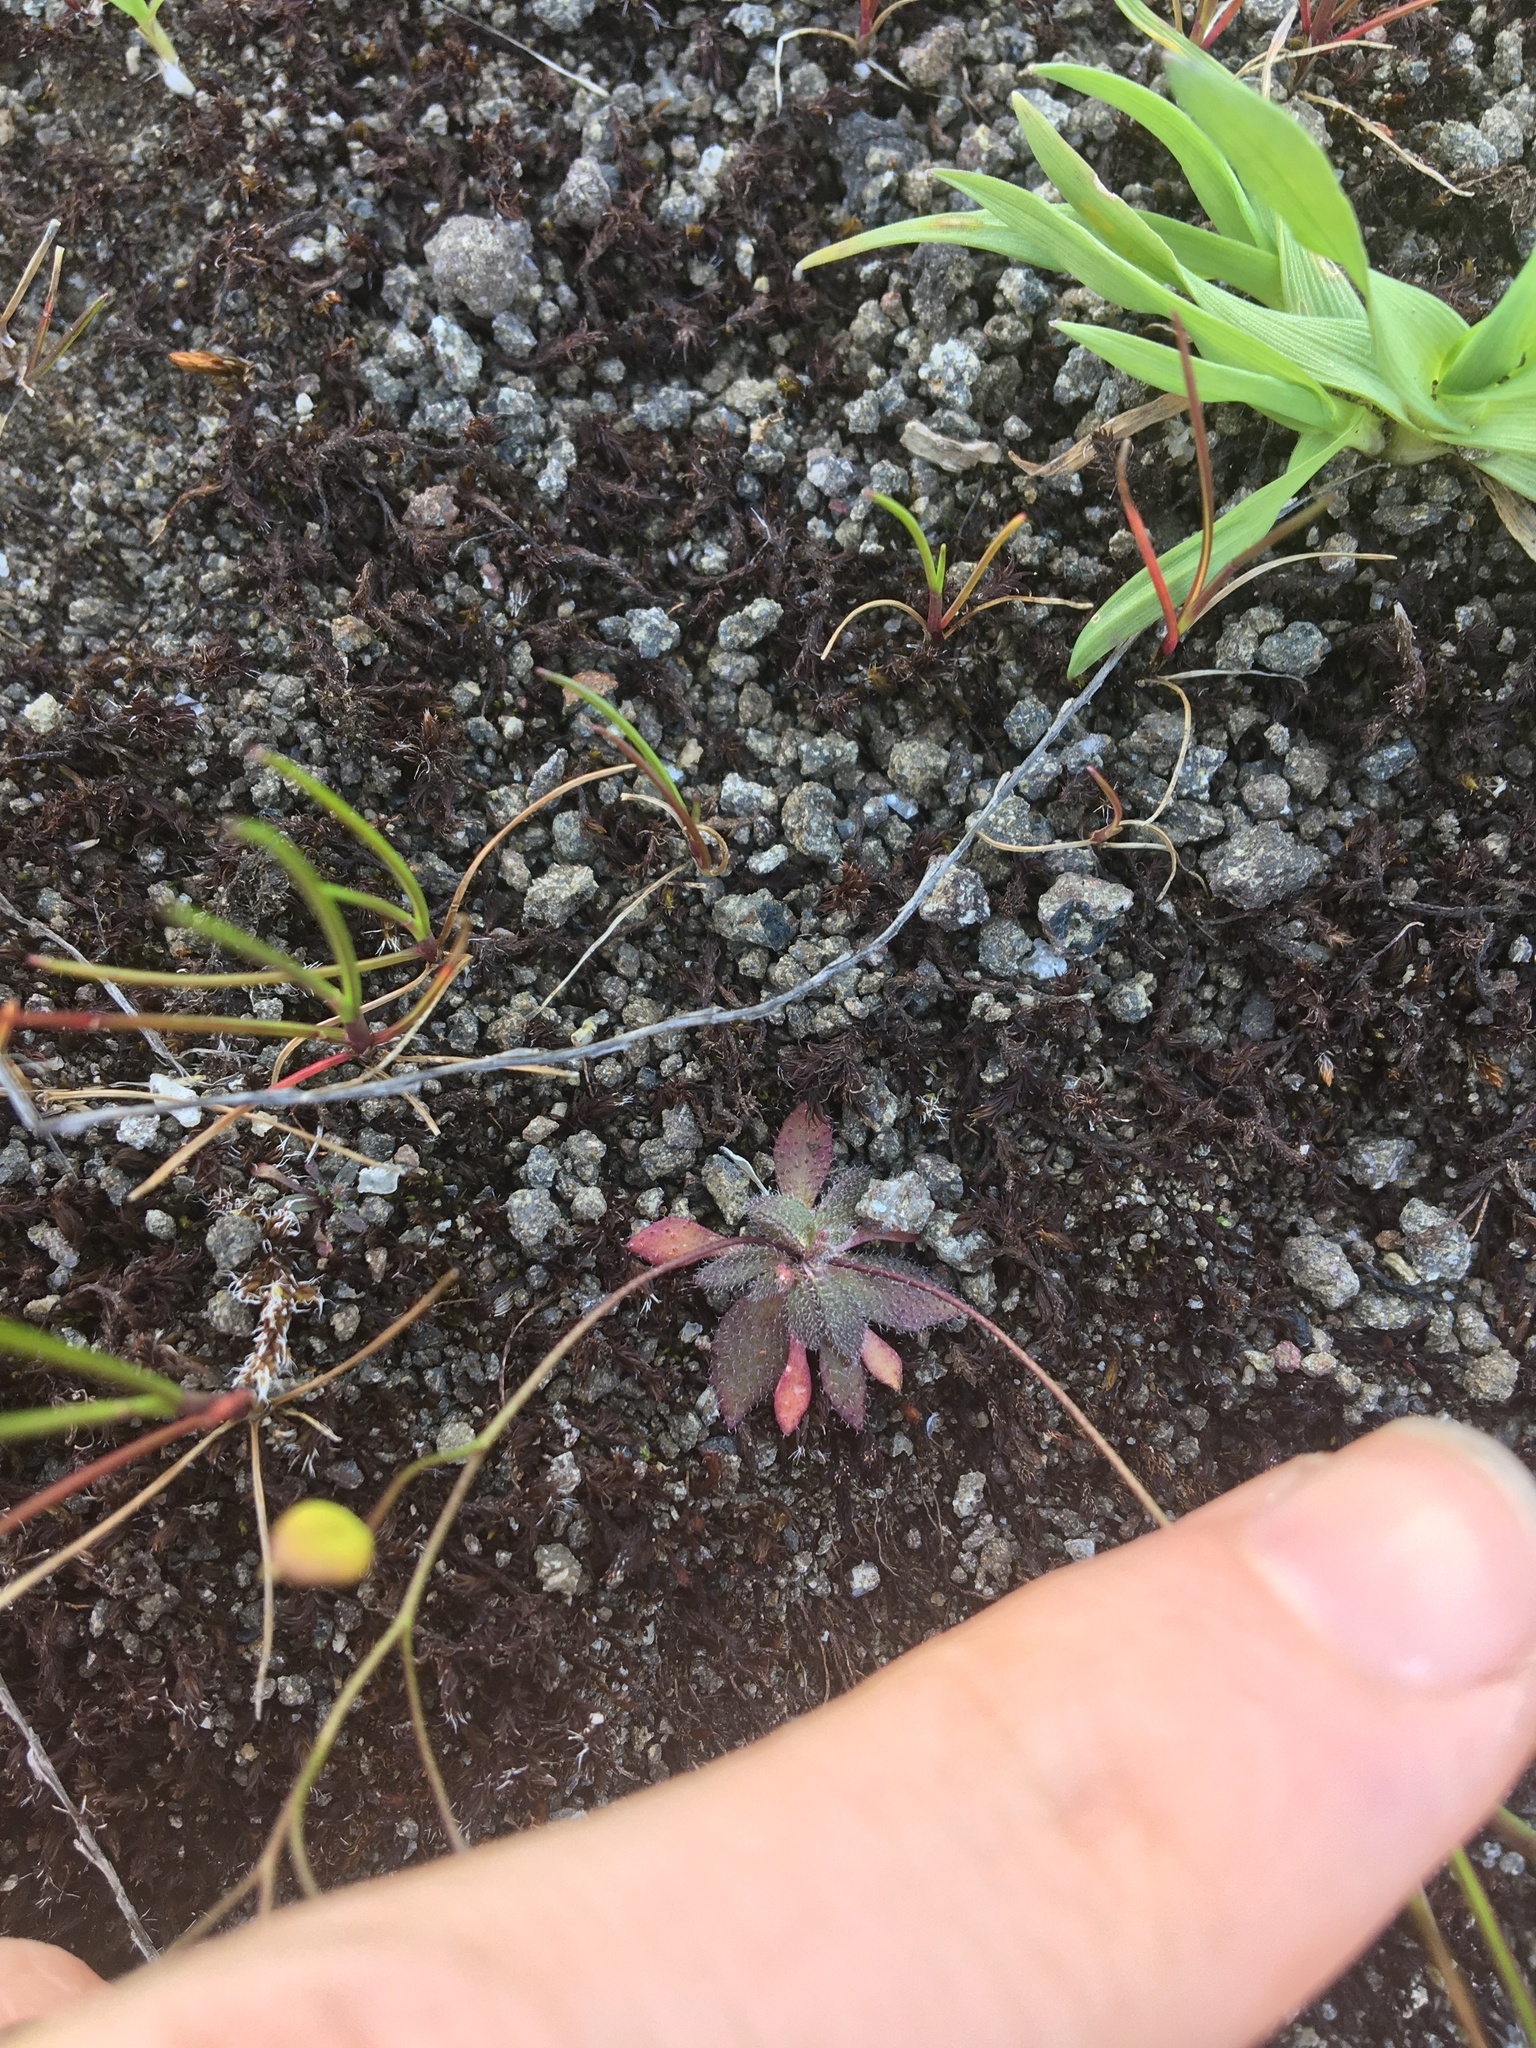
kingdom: Plantae
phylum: Tracheophyta
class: Magnoliopsida
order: Brassicales
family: Brassicaceae
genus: Draba
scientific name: Draba verna
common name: Spring draba
